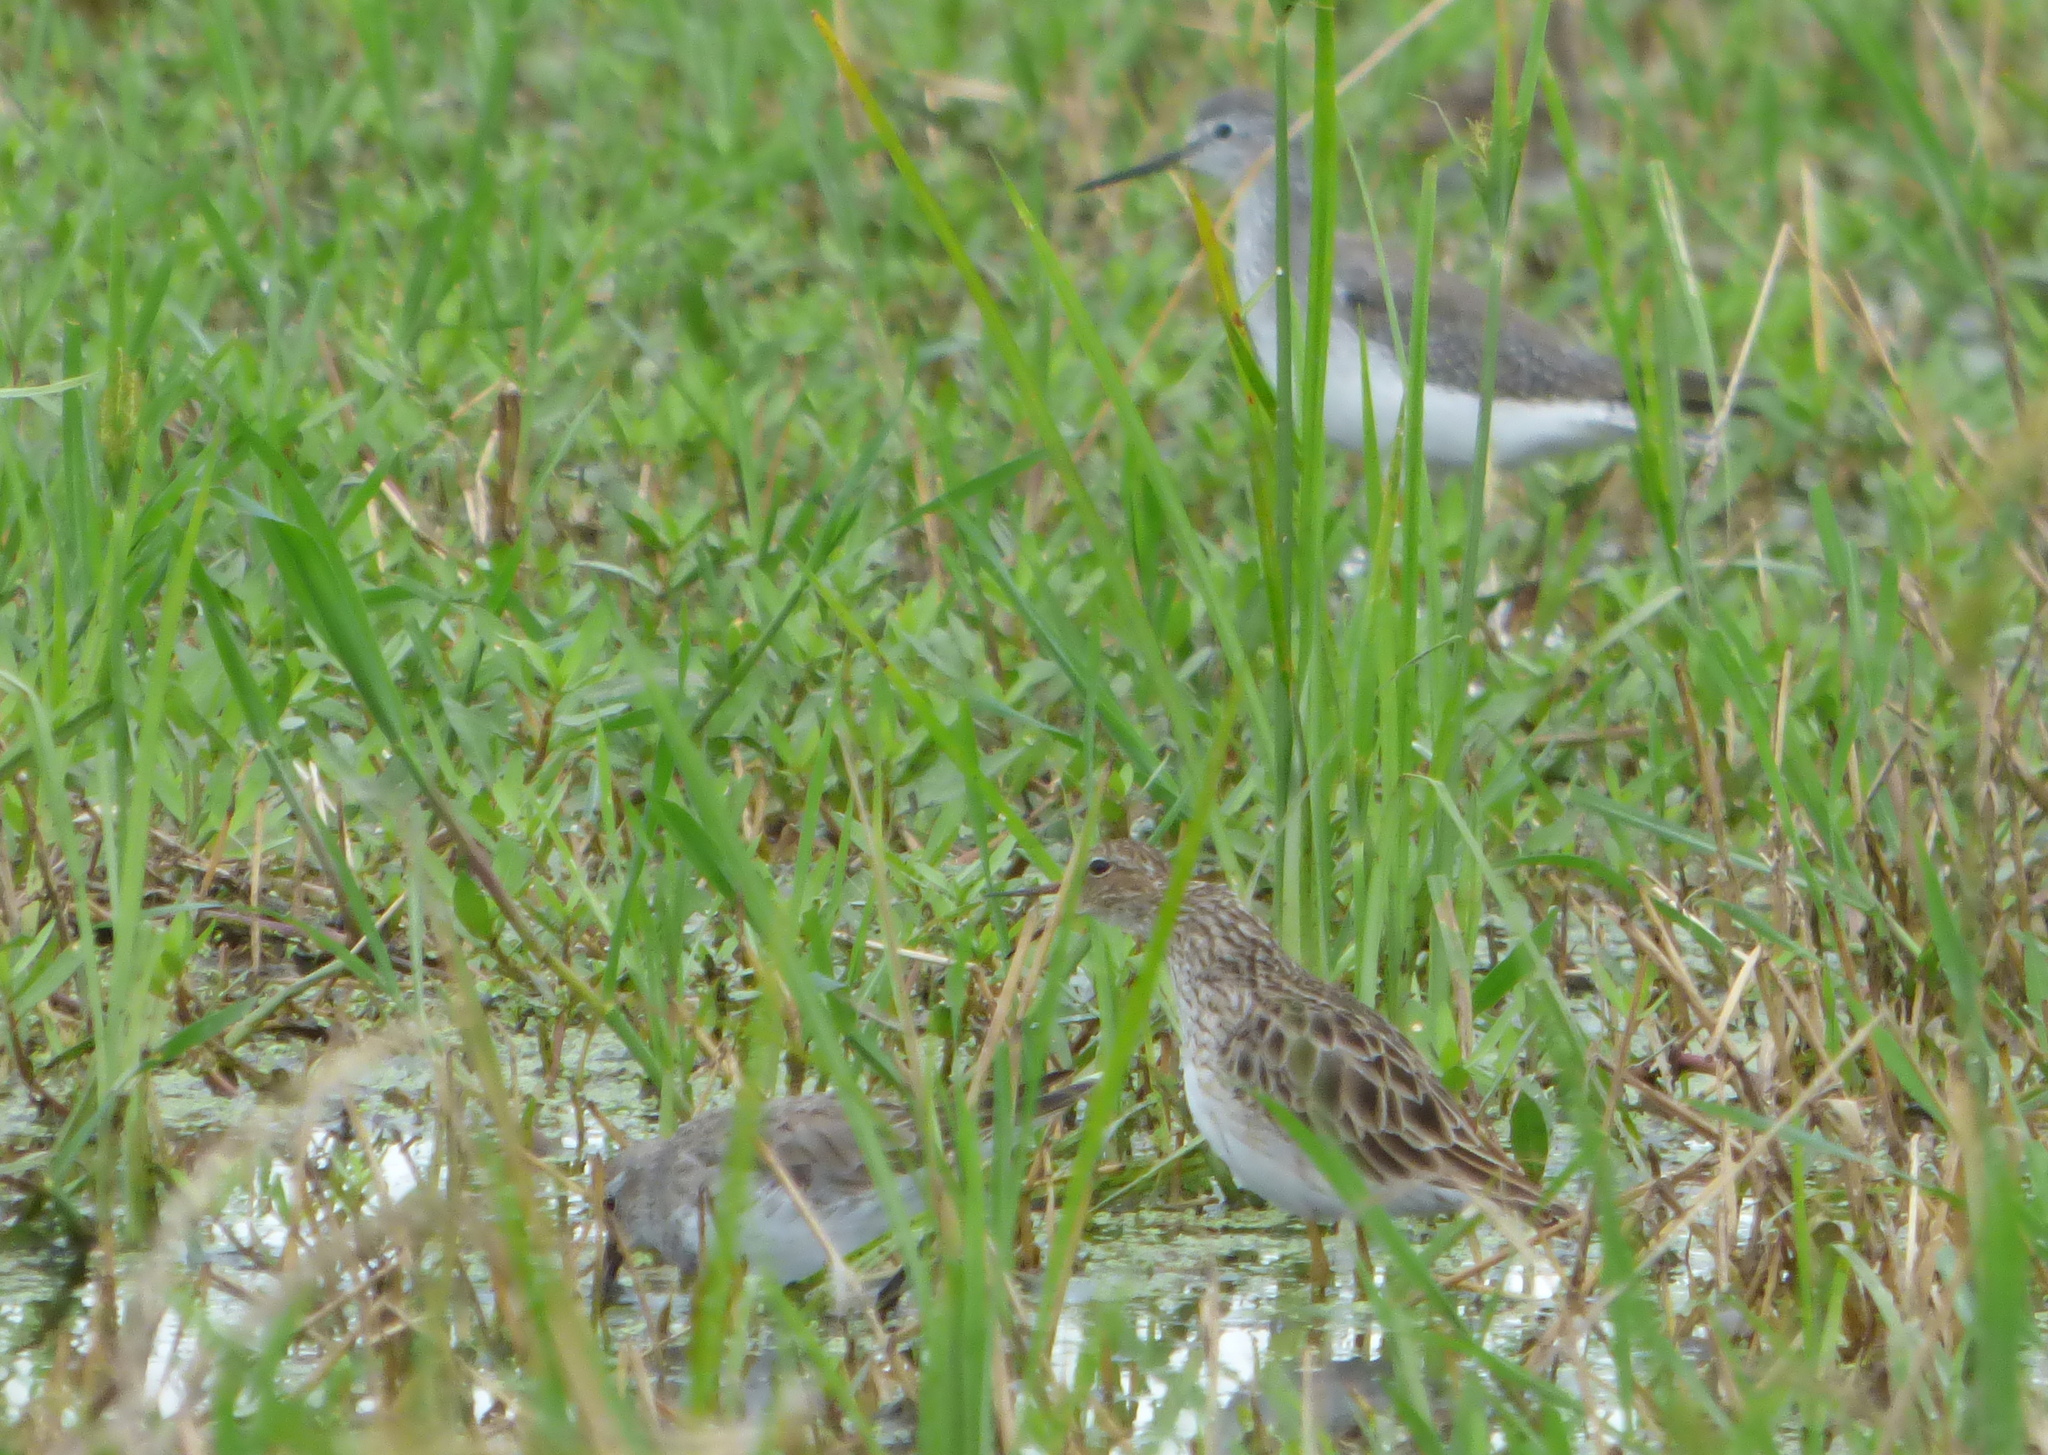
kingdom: Animalia
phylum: Chordata
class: Aves
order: Charadriiformes
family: Scolopacidae
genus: Calidris
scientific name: Calidris melanotos
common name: Pectoral sandpiper
